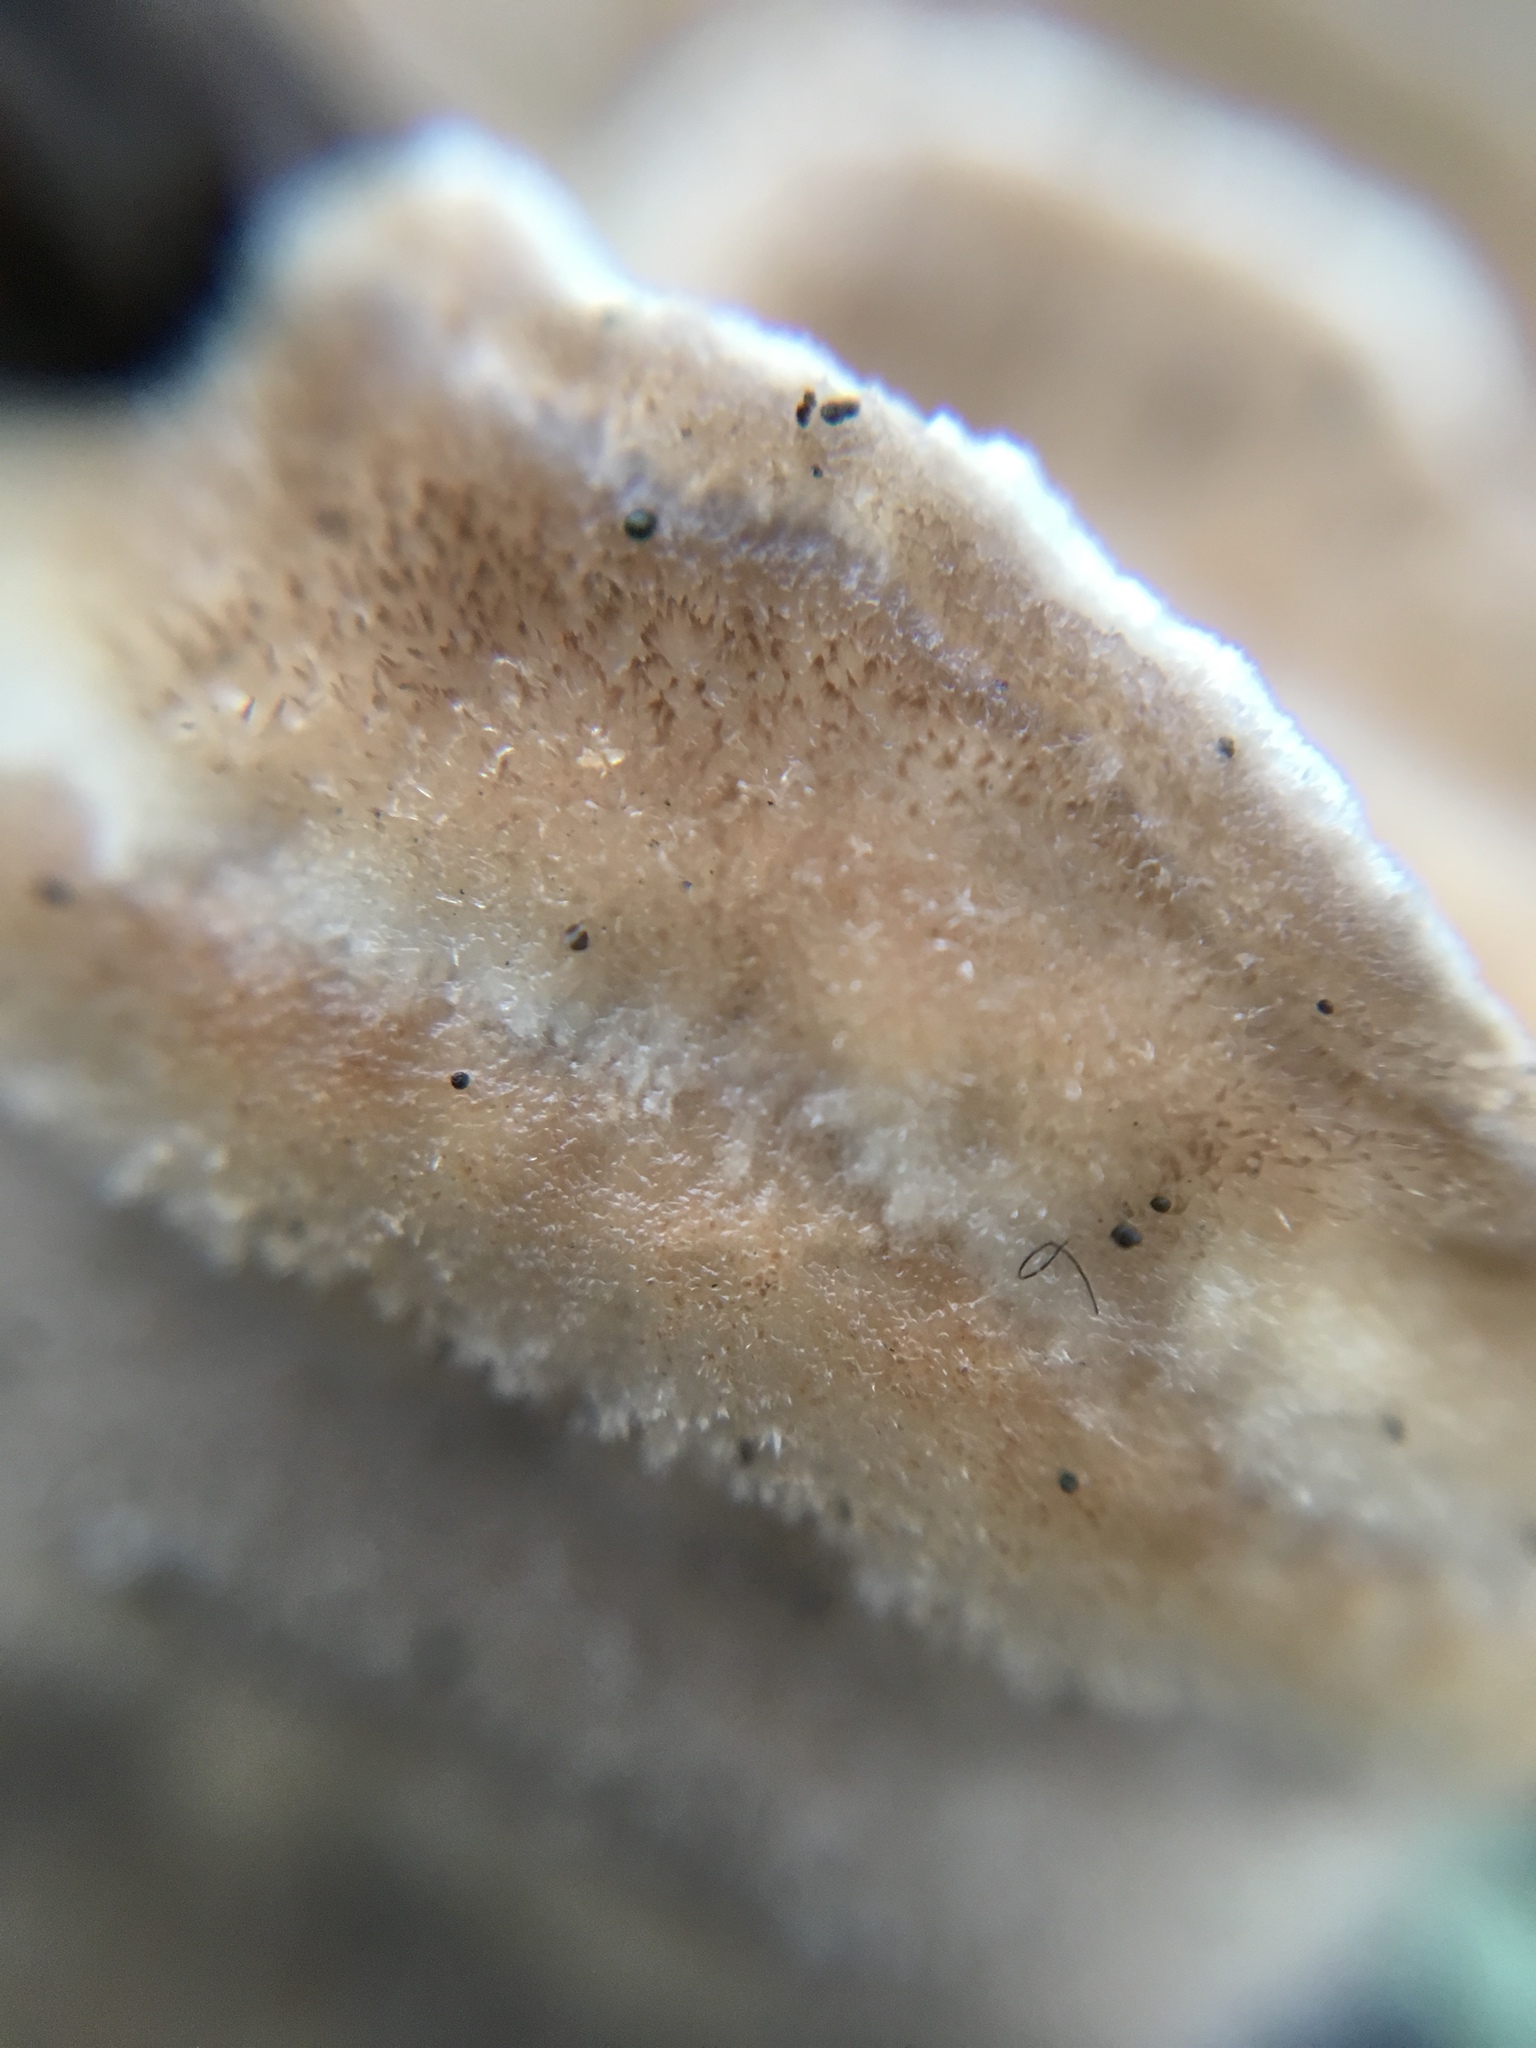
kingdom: Fungi
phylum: Basidiomycota
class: Agaricomycetes
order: Polyporales
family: Polyporaceae
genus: Trametes
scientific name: Trametes hirsuta
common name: Hairy bracket
